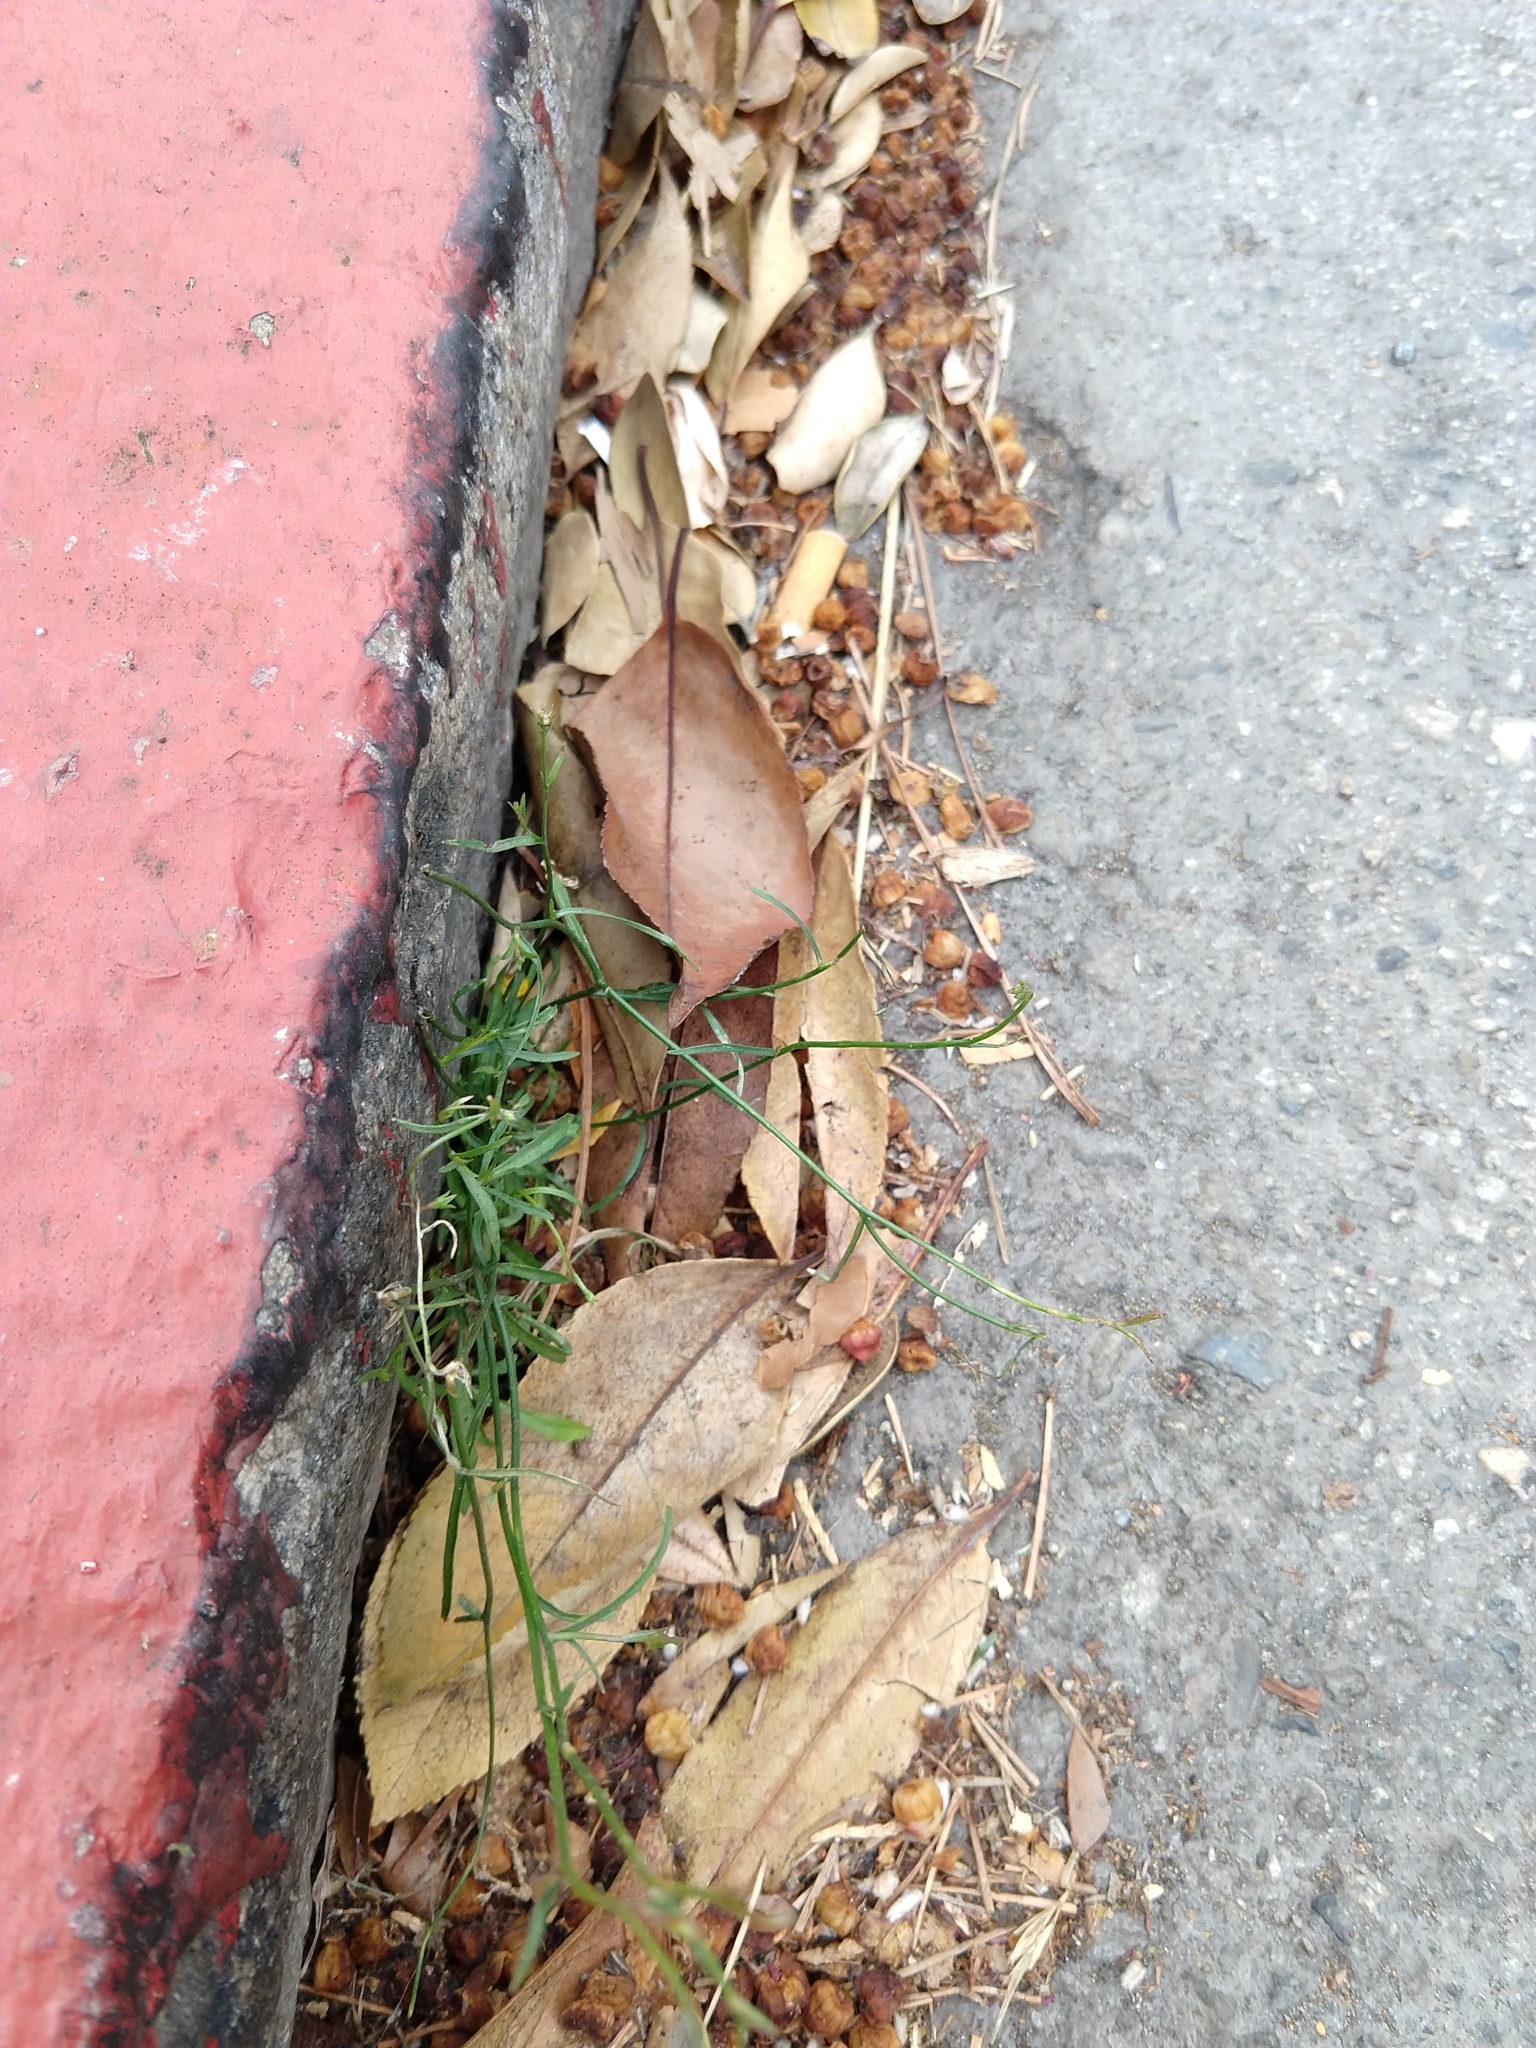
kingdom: Plantae
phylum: Tracheophyta
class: Magnoliopsida
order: Asterales
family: Campanulaceae
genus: Wahlenbergia
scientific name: Wahlenbergia marginata
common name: Southern rockbell
